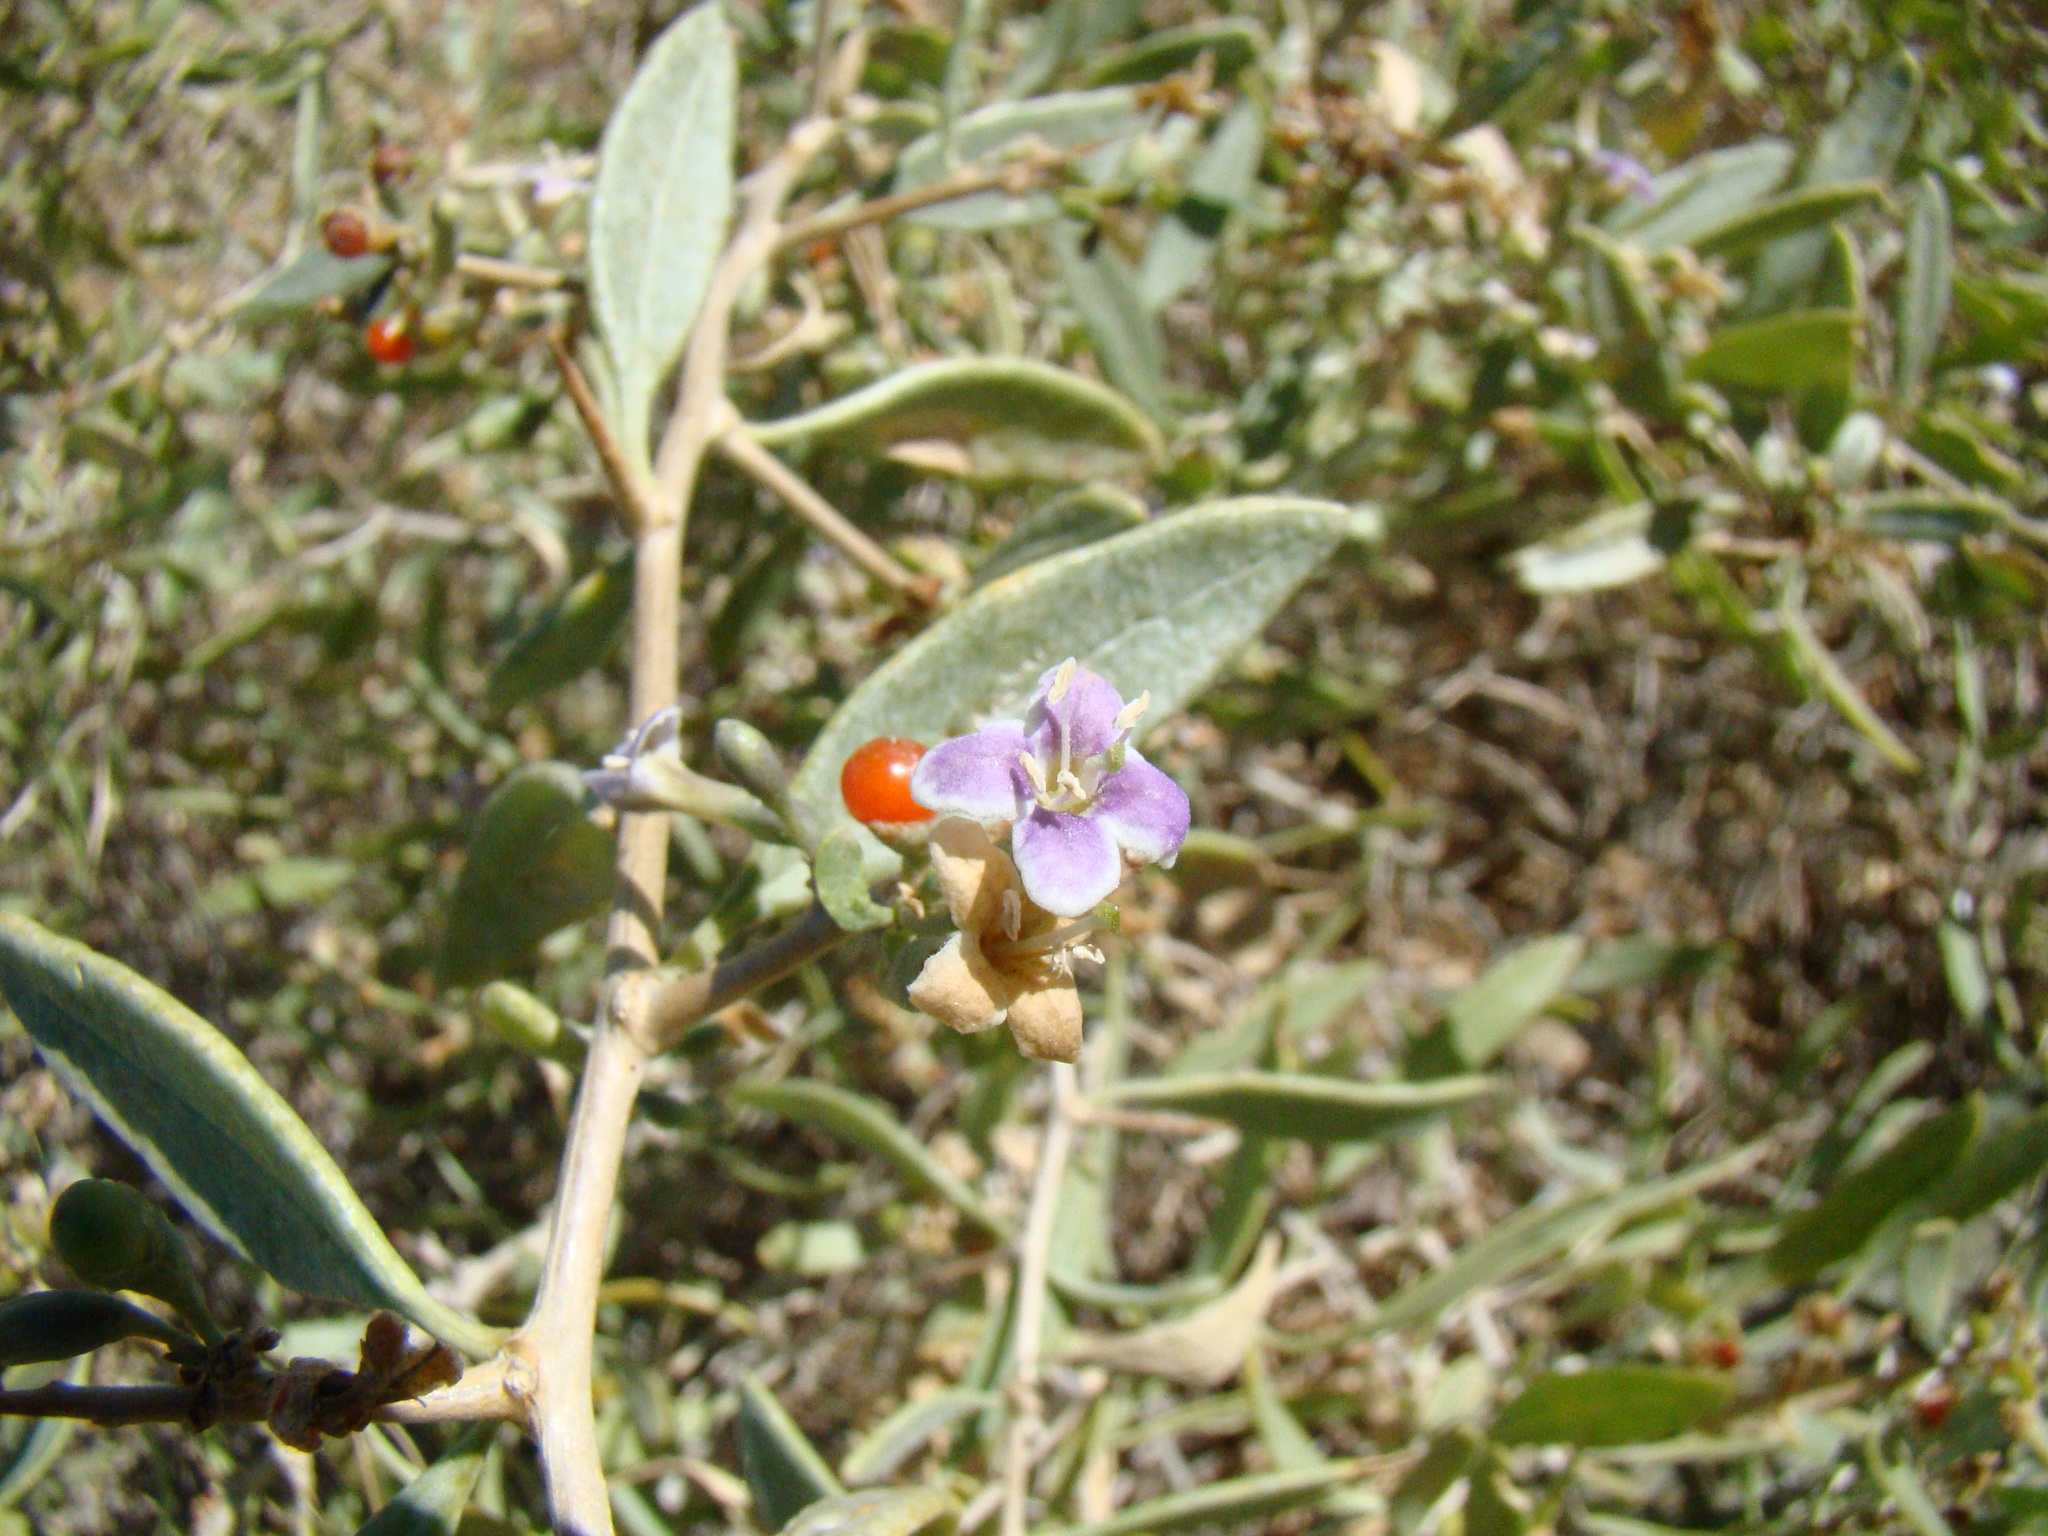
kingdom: Plantae
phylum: Tracheophyta
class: Magnoliopsida
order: Solanales
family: Solanaceae
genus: Lycium
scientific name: Lycium dasystemum
